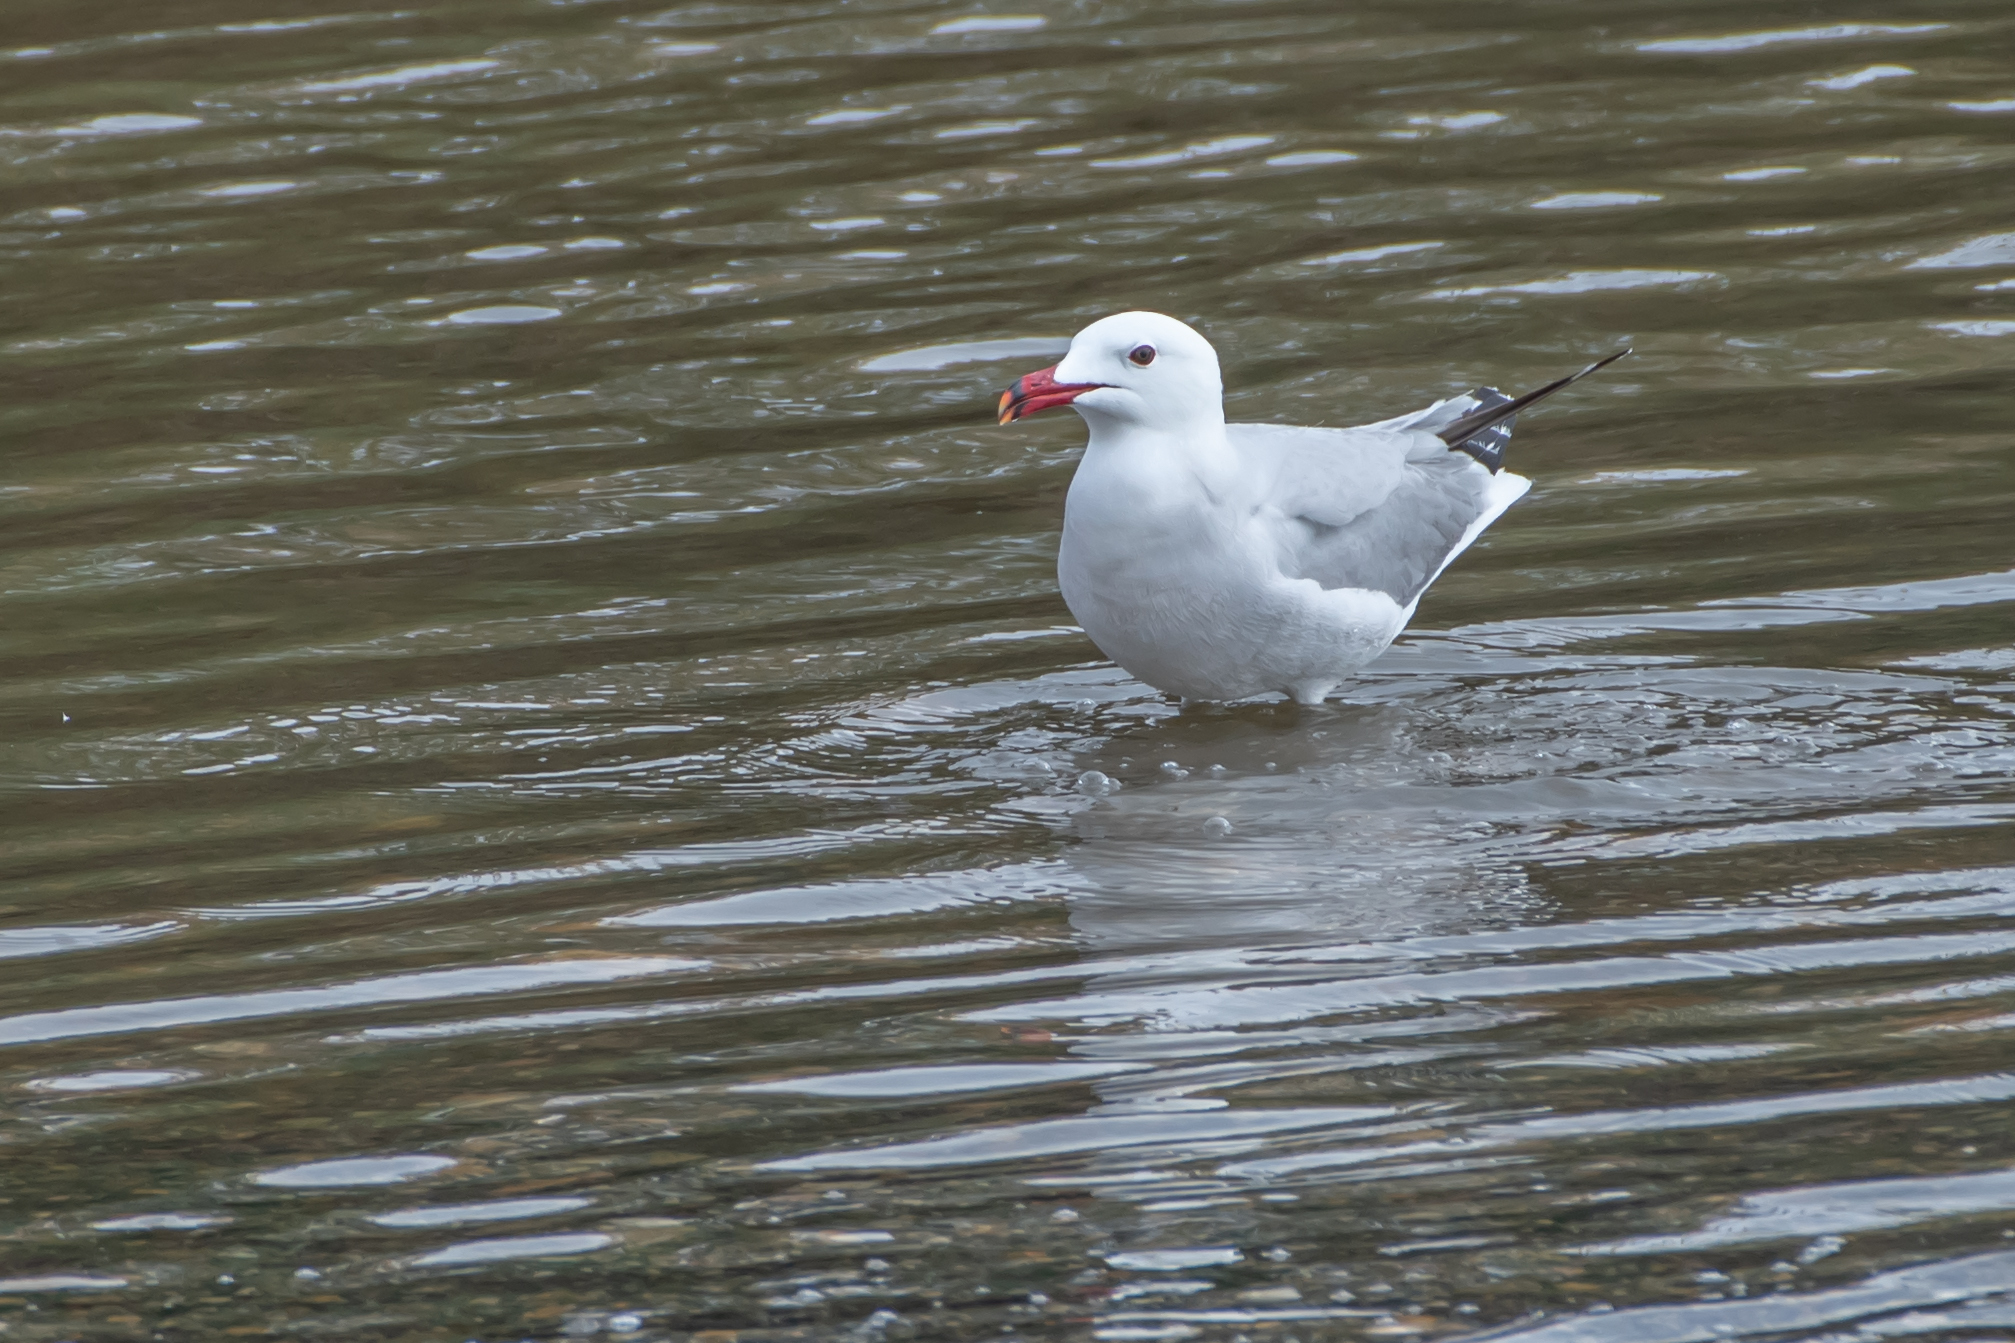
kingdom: Animalia
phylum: Chordata
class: Aves
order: Charadriiformes
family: Laridae
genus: Ichthyaetus
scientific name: Ichthyaetus audouinii
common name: Audouin's gull
